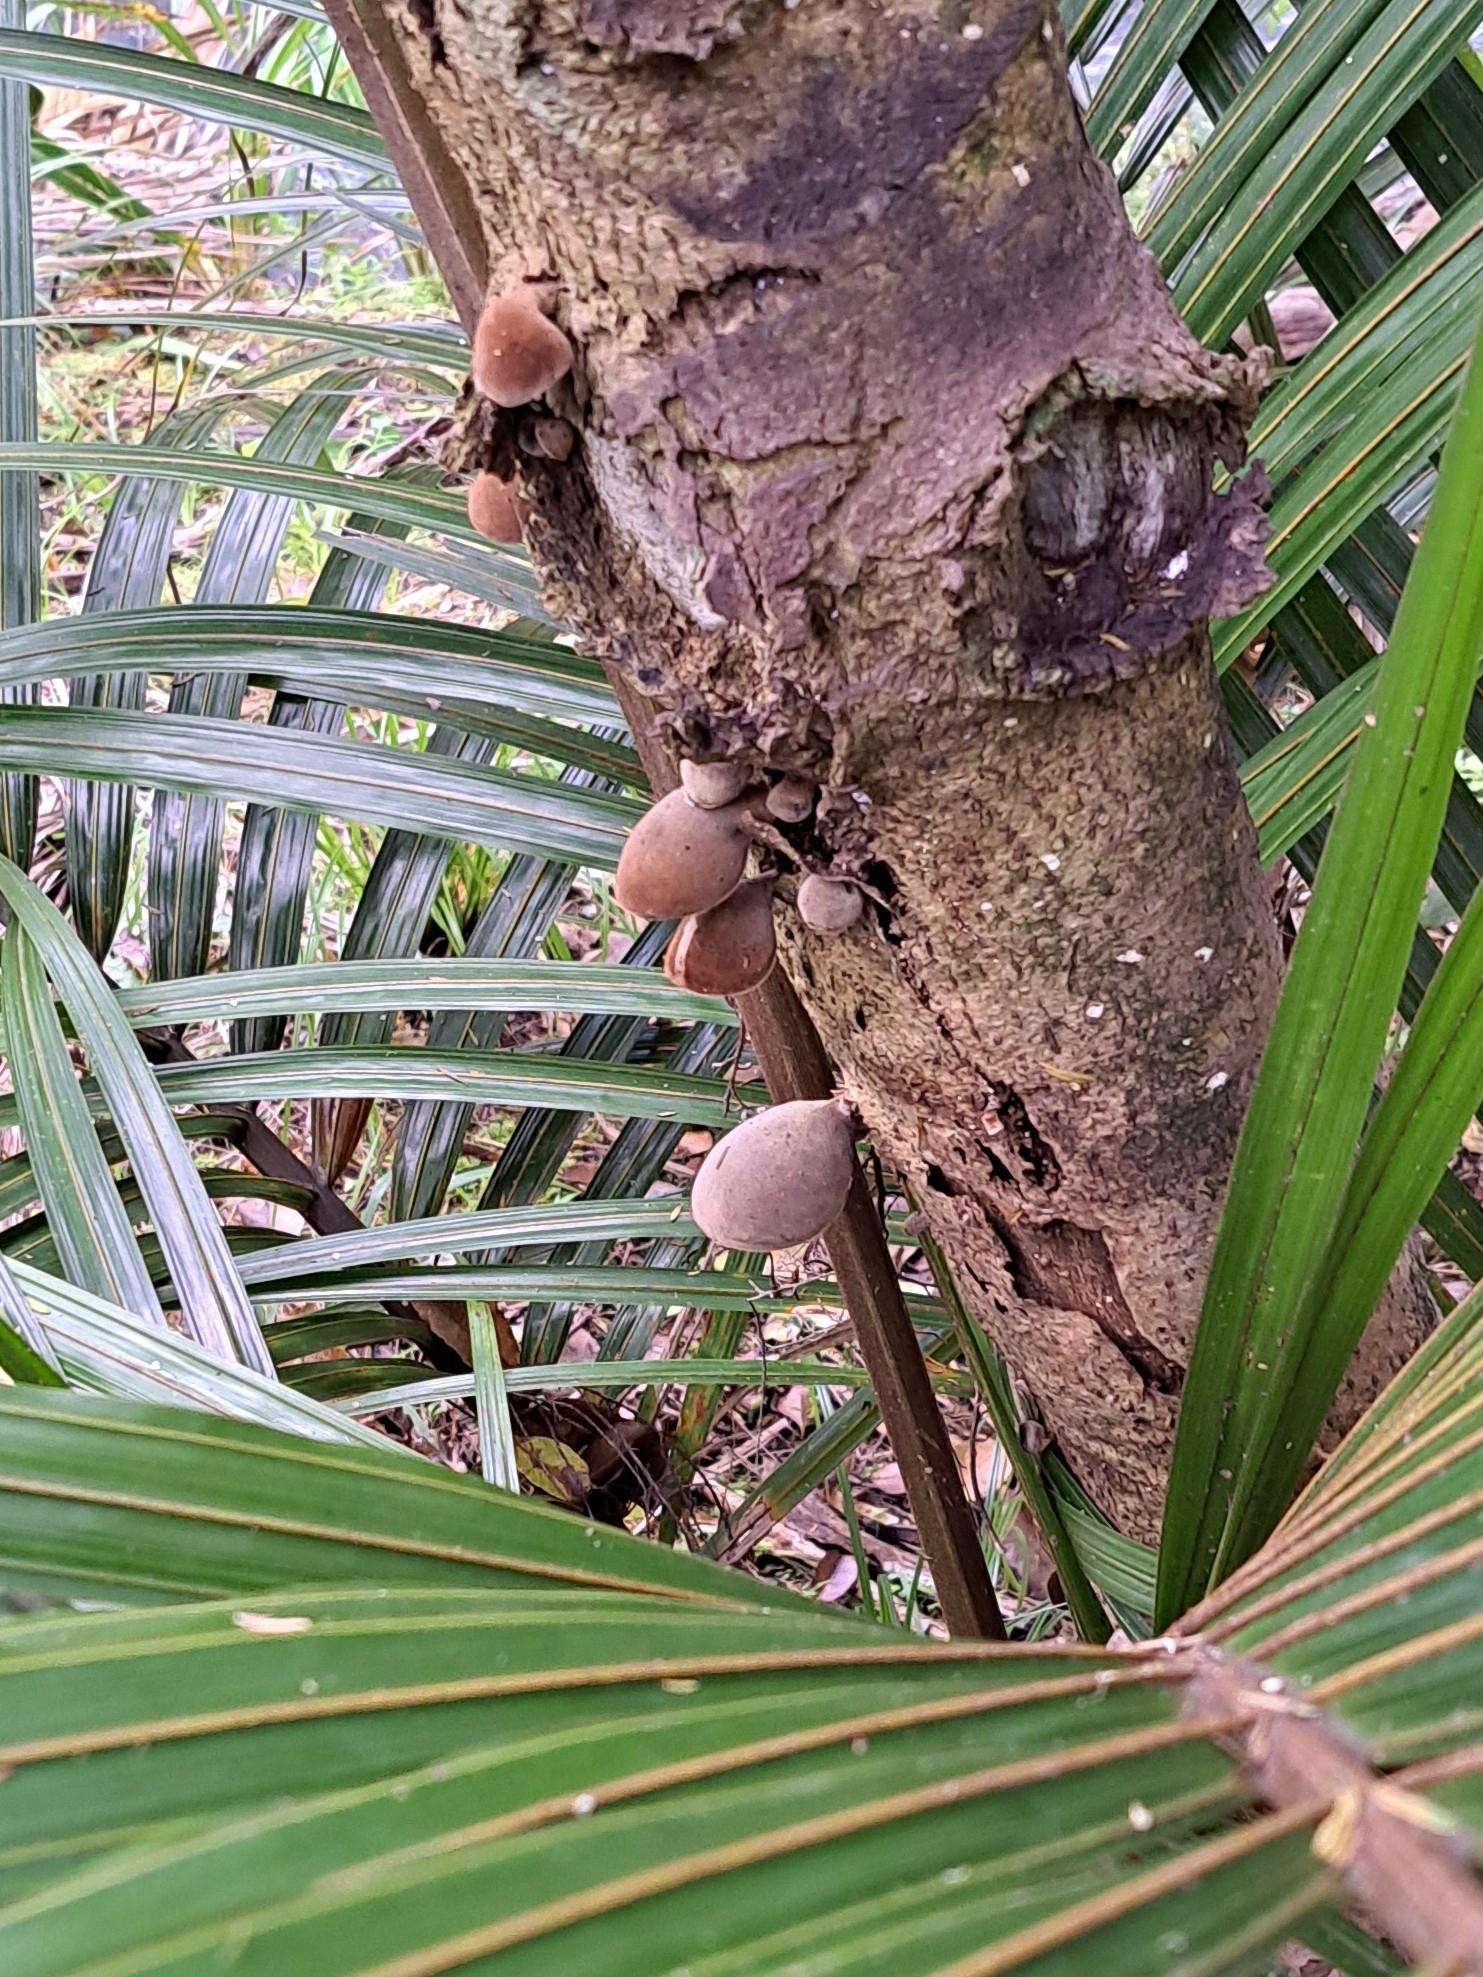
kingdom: Fungi
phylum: Basidiomycota
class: Agaricomycetes
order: Auriculariales
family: Auriculariaceae
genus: Auricularia
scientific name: Auricularia cornea
